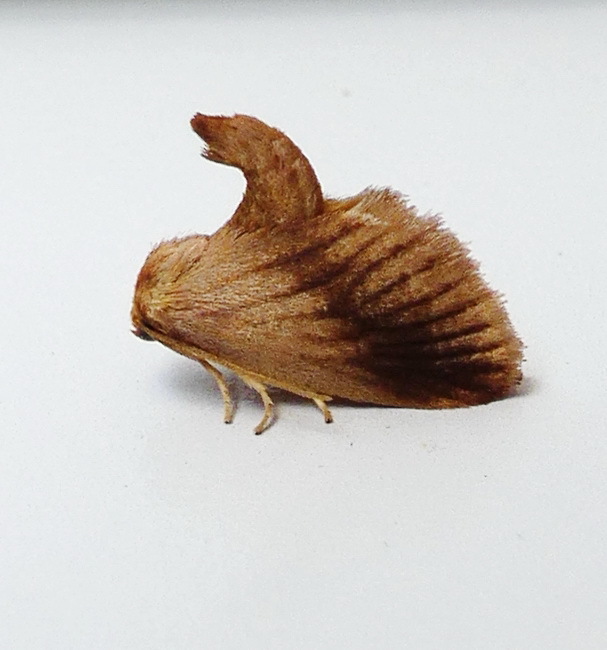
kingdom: Animalia
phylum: Arthropoda
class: Insecta
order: Lepidoptera
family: Limacodidae
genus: Tortricidia
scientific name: Tortricidia testacea
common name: Early button slug moth
